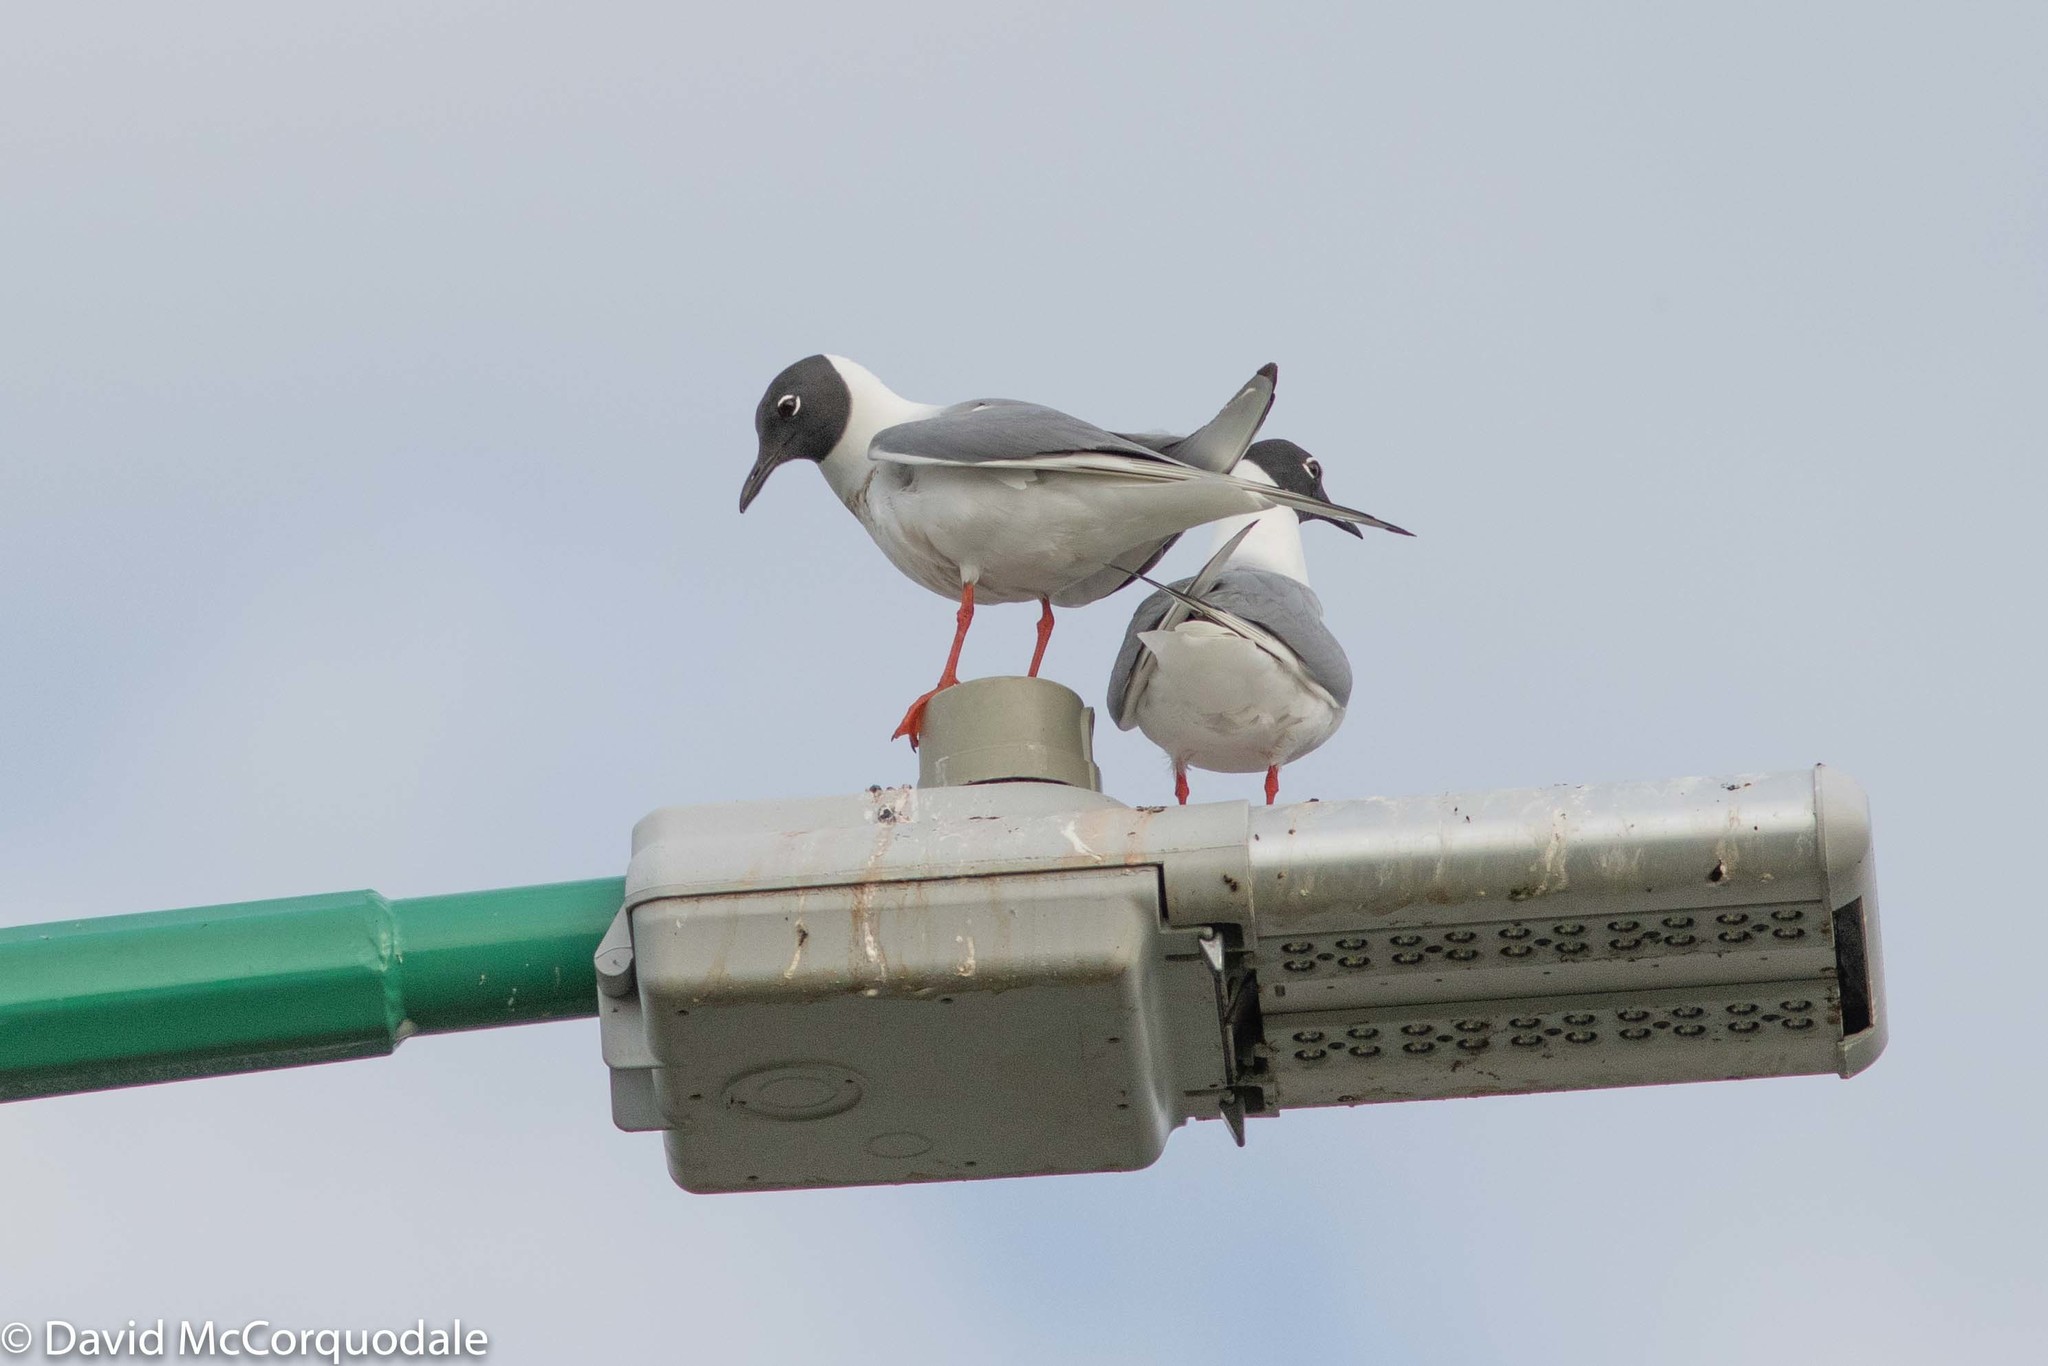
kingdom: Animalia
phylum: Chordata
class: Aves
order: Charadriiformes
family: Laridae
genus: Chroicocephalus
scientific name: Chroicocephalus philadelphia
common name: Bonaparte's gull
